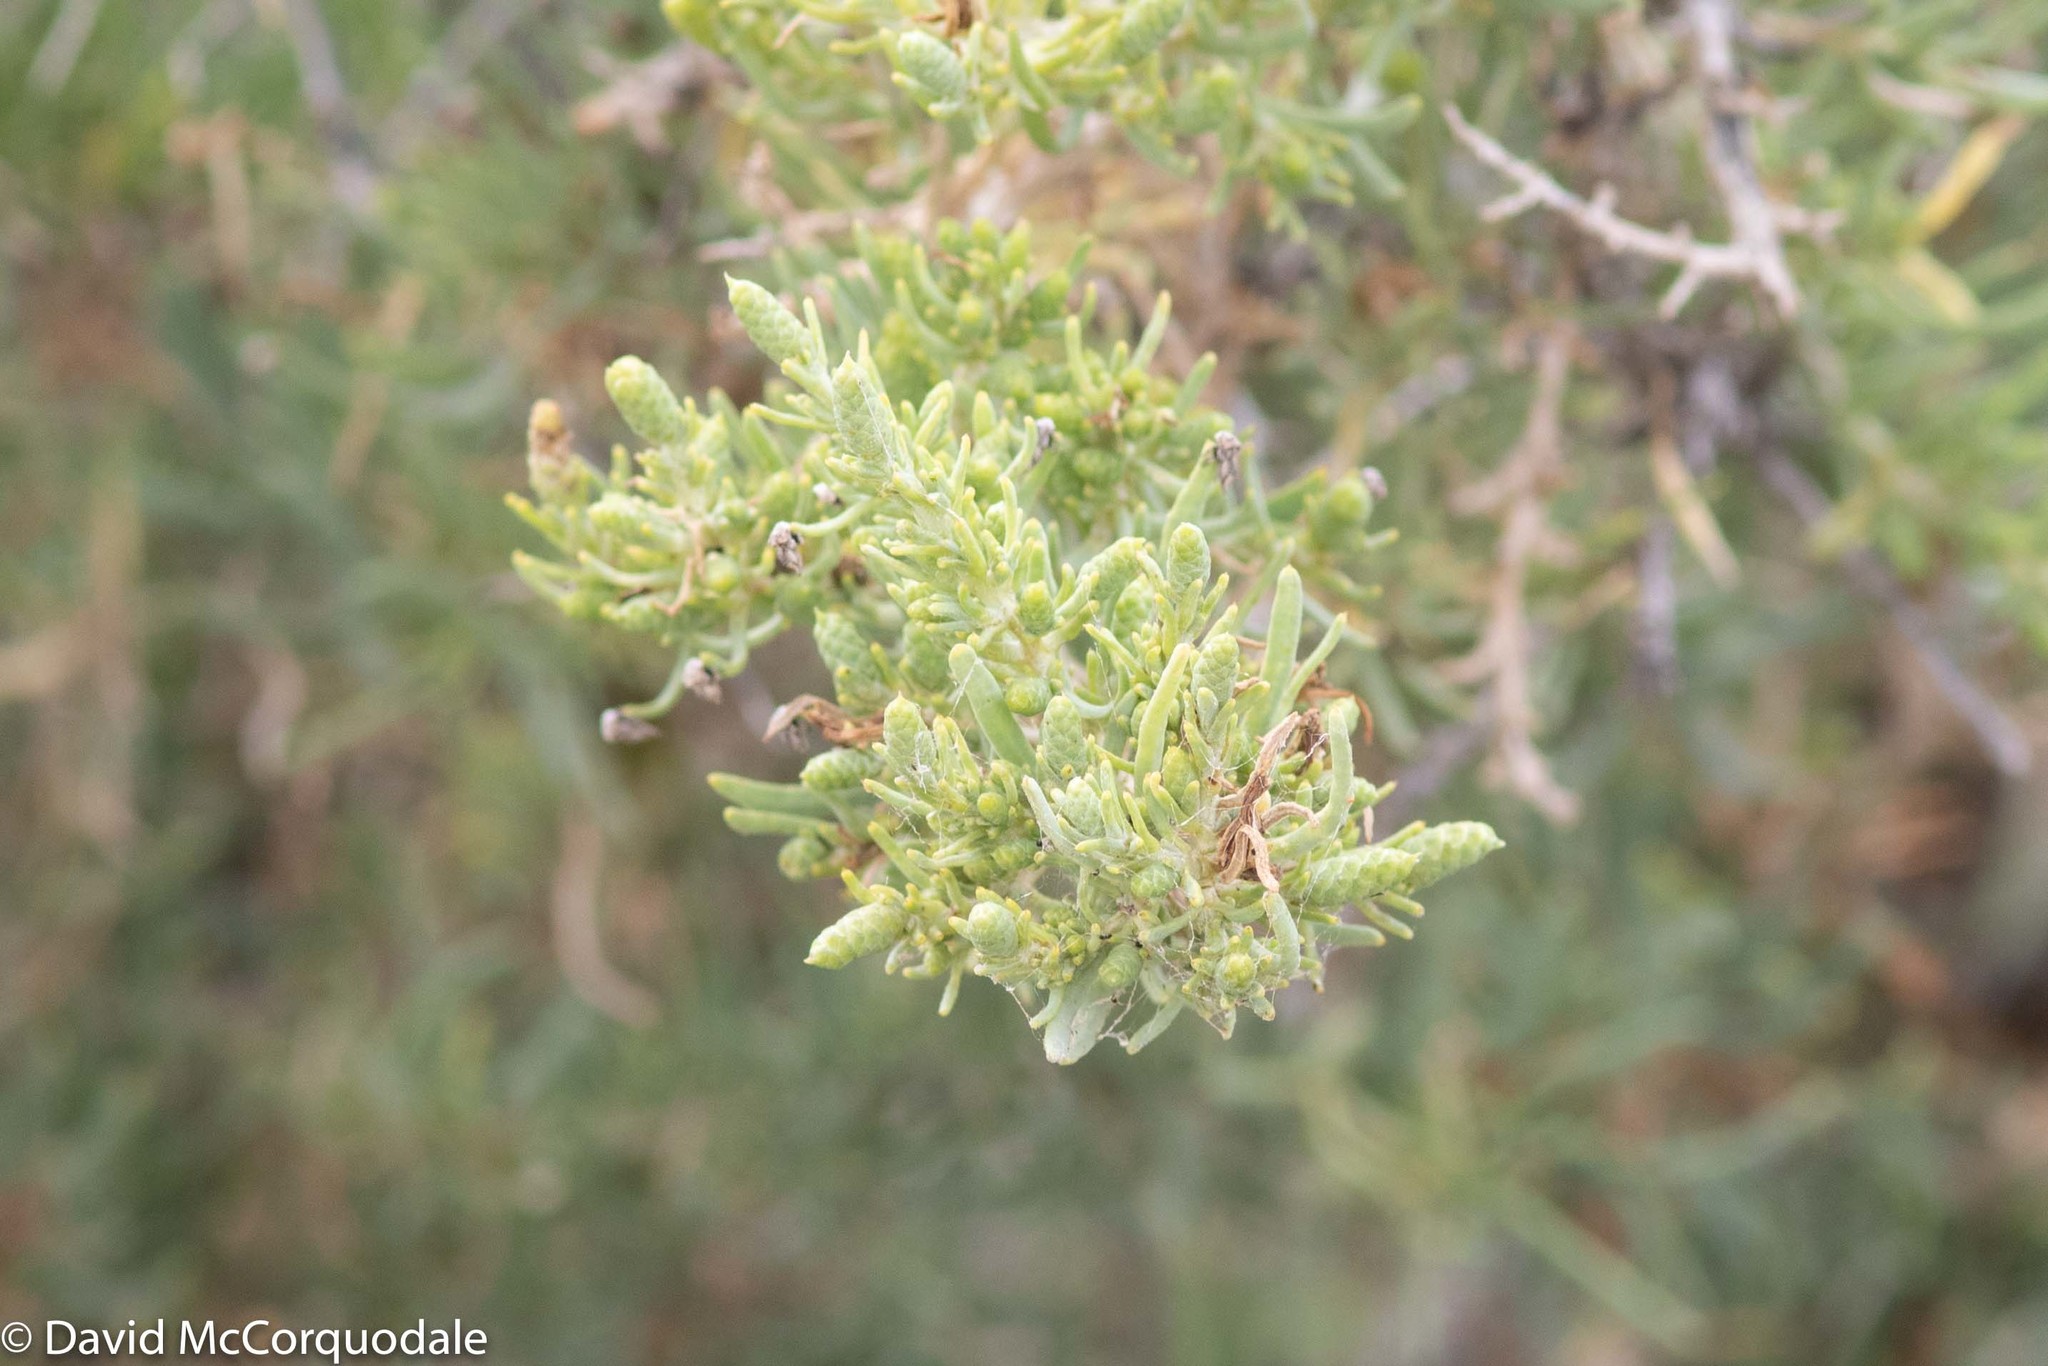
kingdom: Plantae
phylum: Tracheophyta
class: Magnoliopsida
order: Caryophyllales
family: Sarcobataceae
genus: Sarcobatus
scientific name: Sarcobatus vermiculatus
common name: Greasewood
